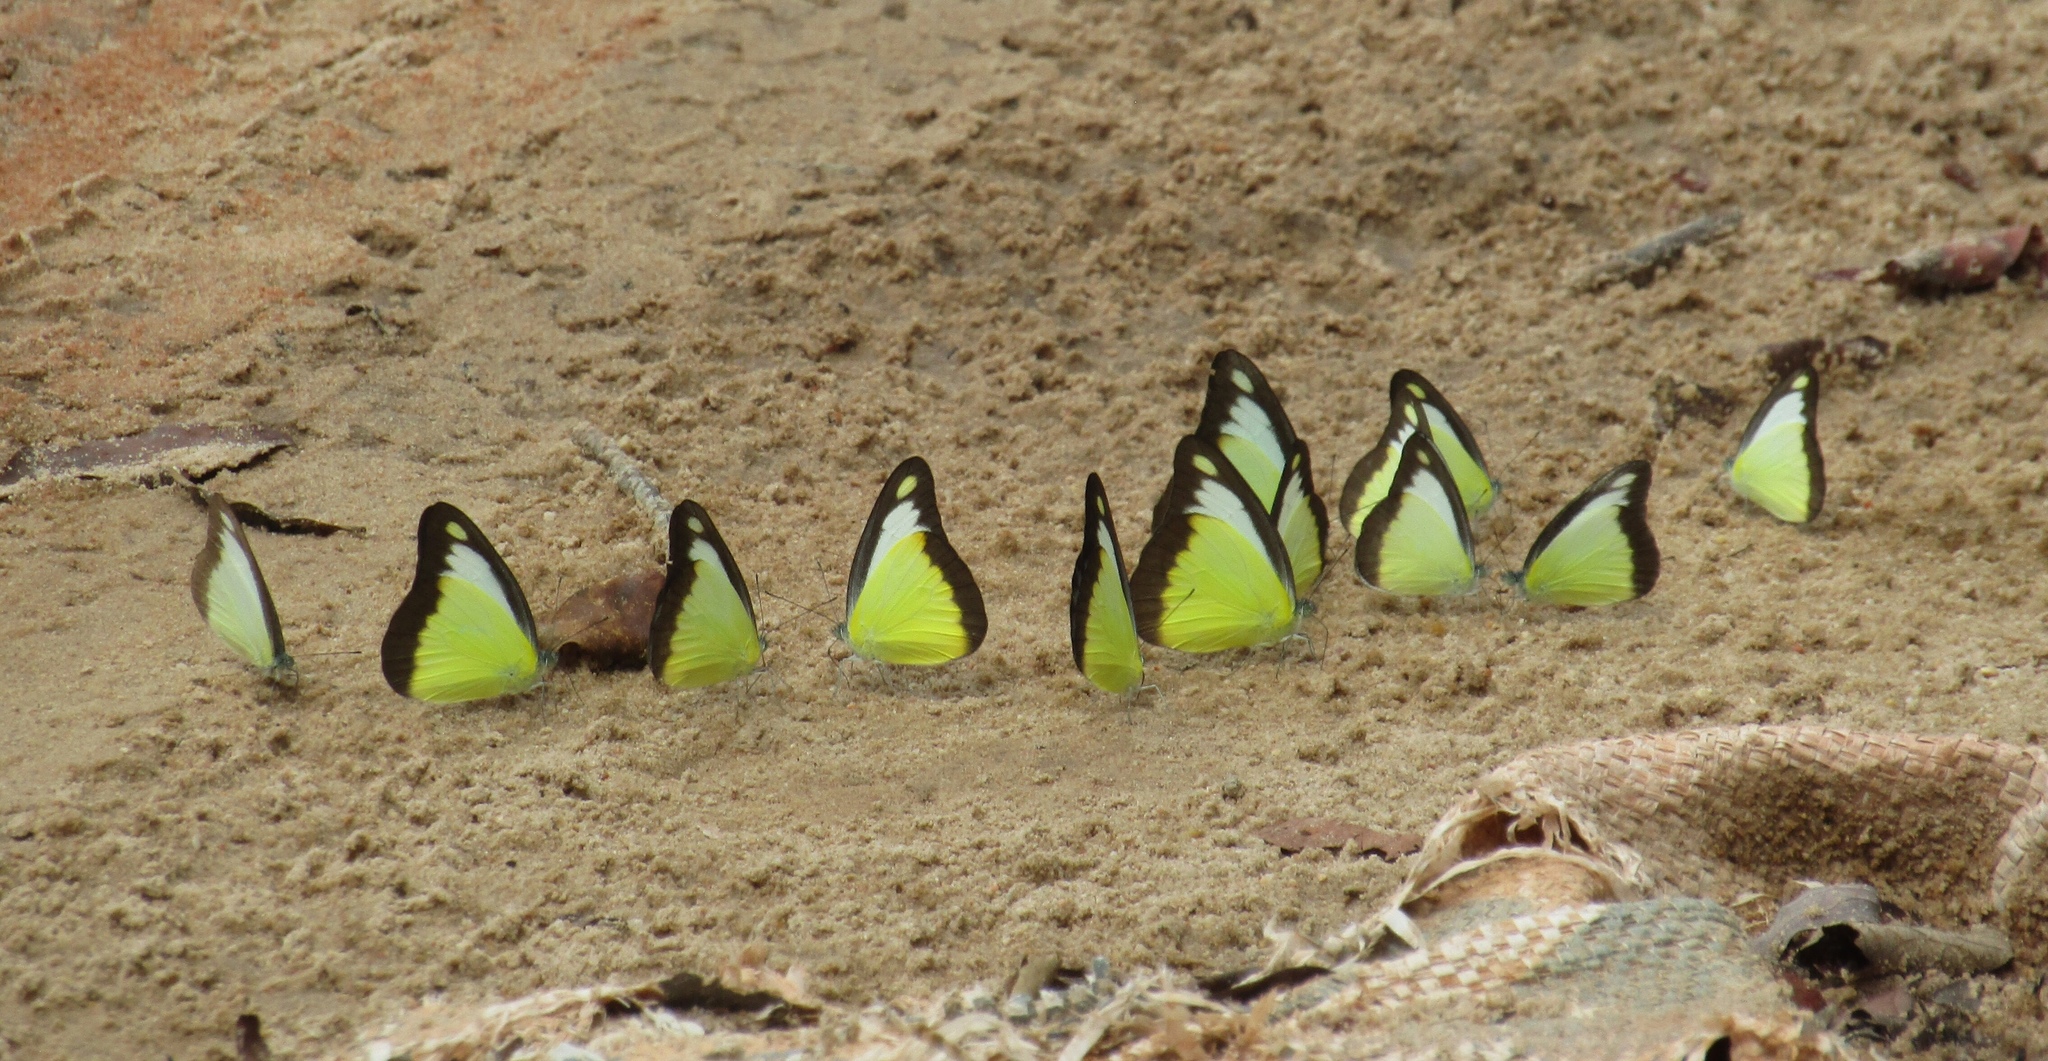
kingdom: Animalia
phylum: Arthropoda
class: Insecta
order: Lepidoptera
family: Pieridae
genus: Appias
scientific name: Appias lyncida
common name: Chocolate albatross
